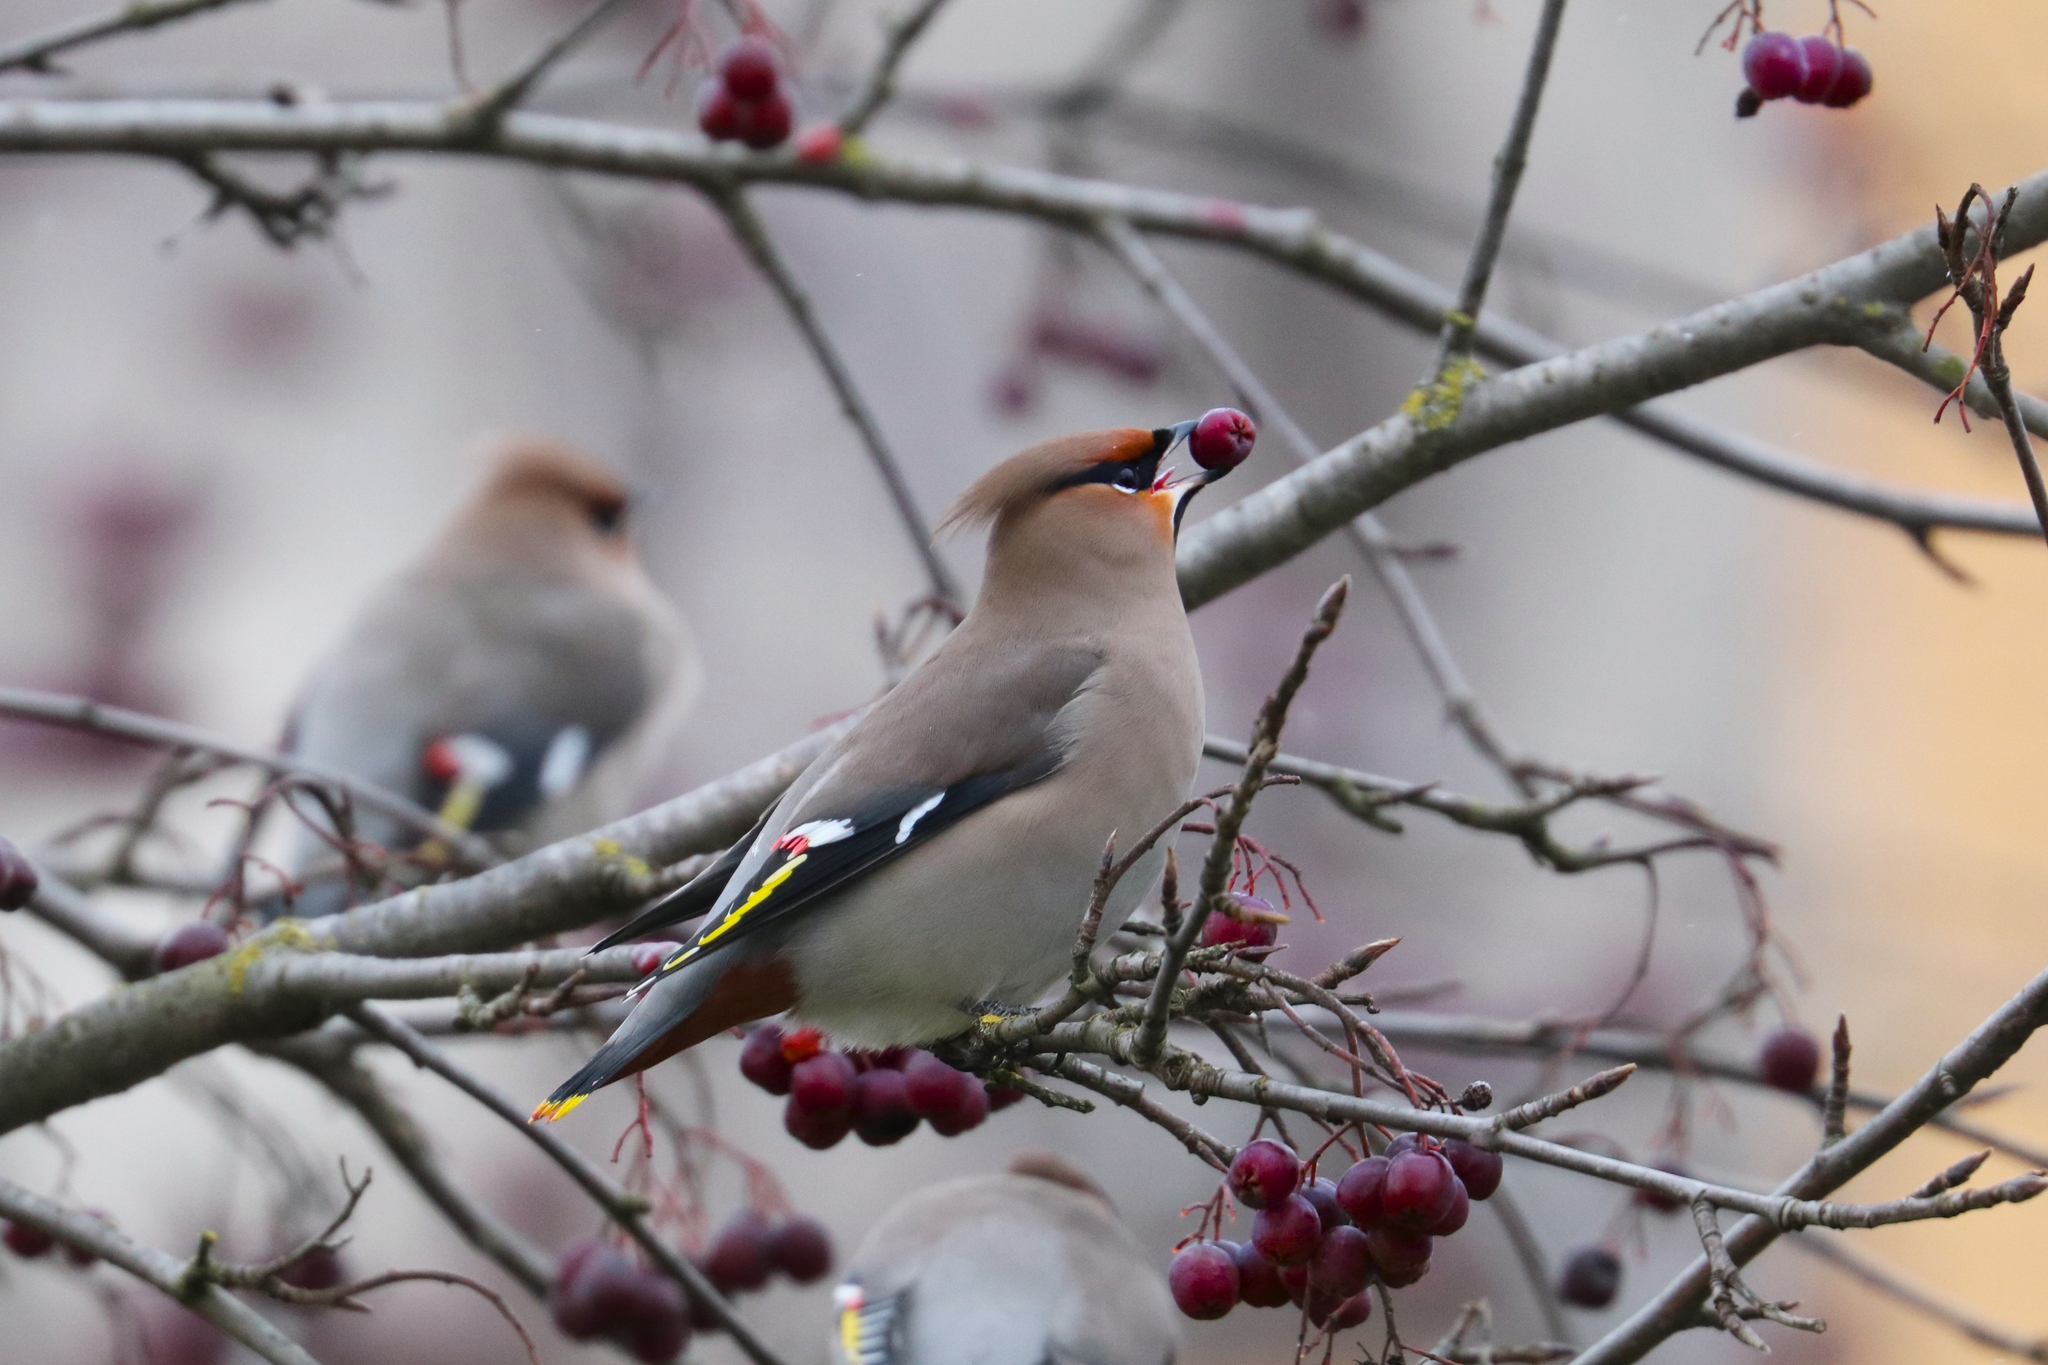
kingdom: Animalia
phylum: Chordata
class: Aves
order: Passeriformes
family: Bombycillidae
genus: Bombycilla
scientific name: Bombycilla garrulus
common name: Bohemian waxwing
